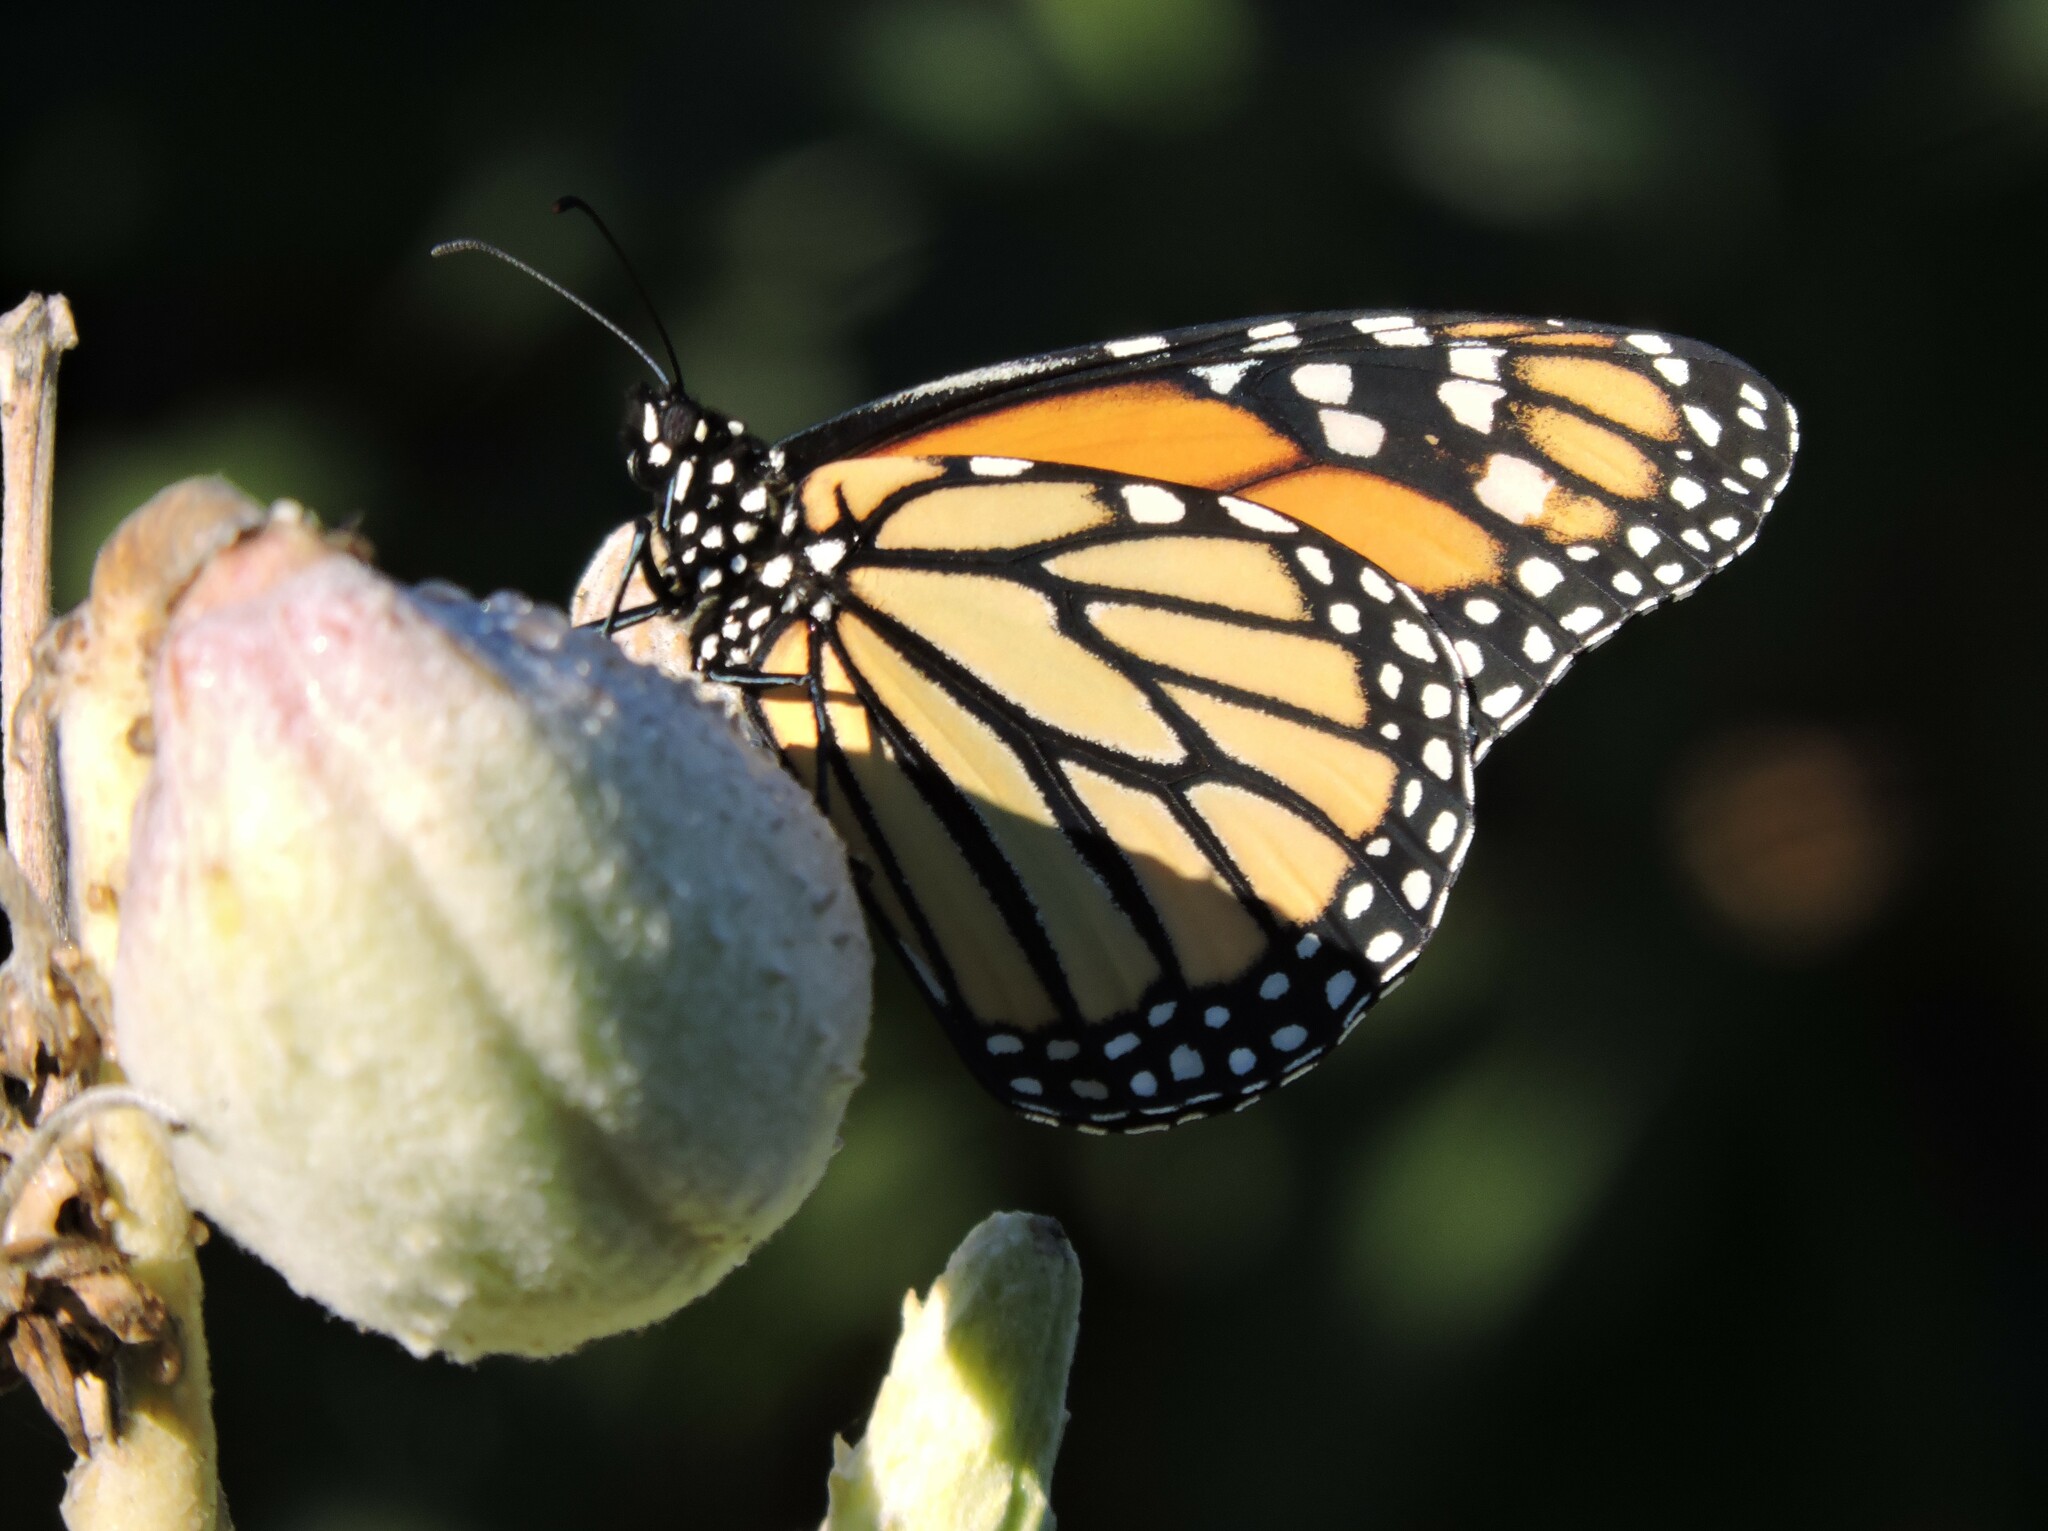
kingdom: Animalia
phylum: Arthropoda
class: Insecta
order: Lepidoptera
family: Nymphalidae
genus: Danaus
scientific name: Danaus plexippus
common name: Monarch
